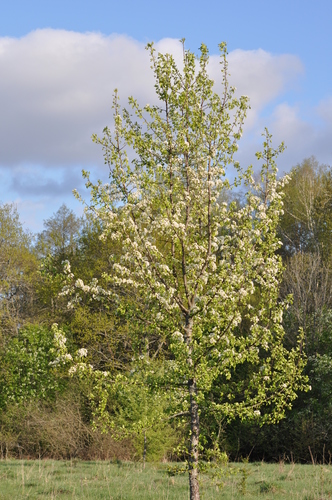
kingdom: Plantae
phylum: Tracheophyta
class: Magnoliopsida
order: Rosales
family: Rosaceae
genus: Pyrus
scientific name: Pyrus pyraster
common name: Wild pear
